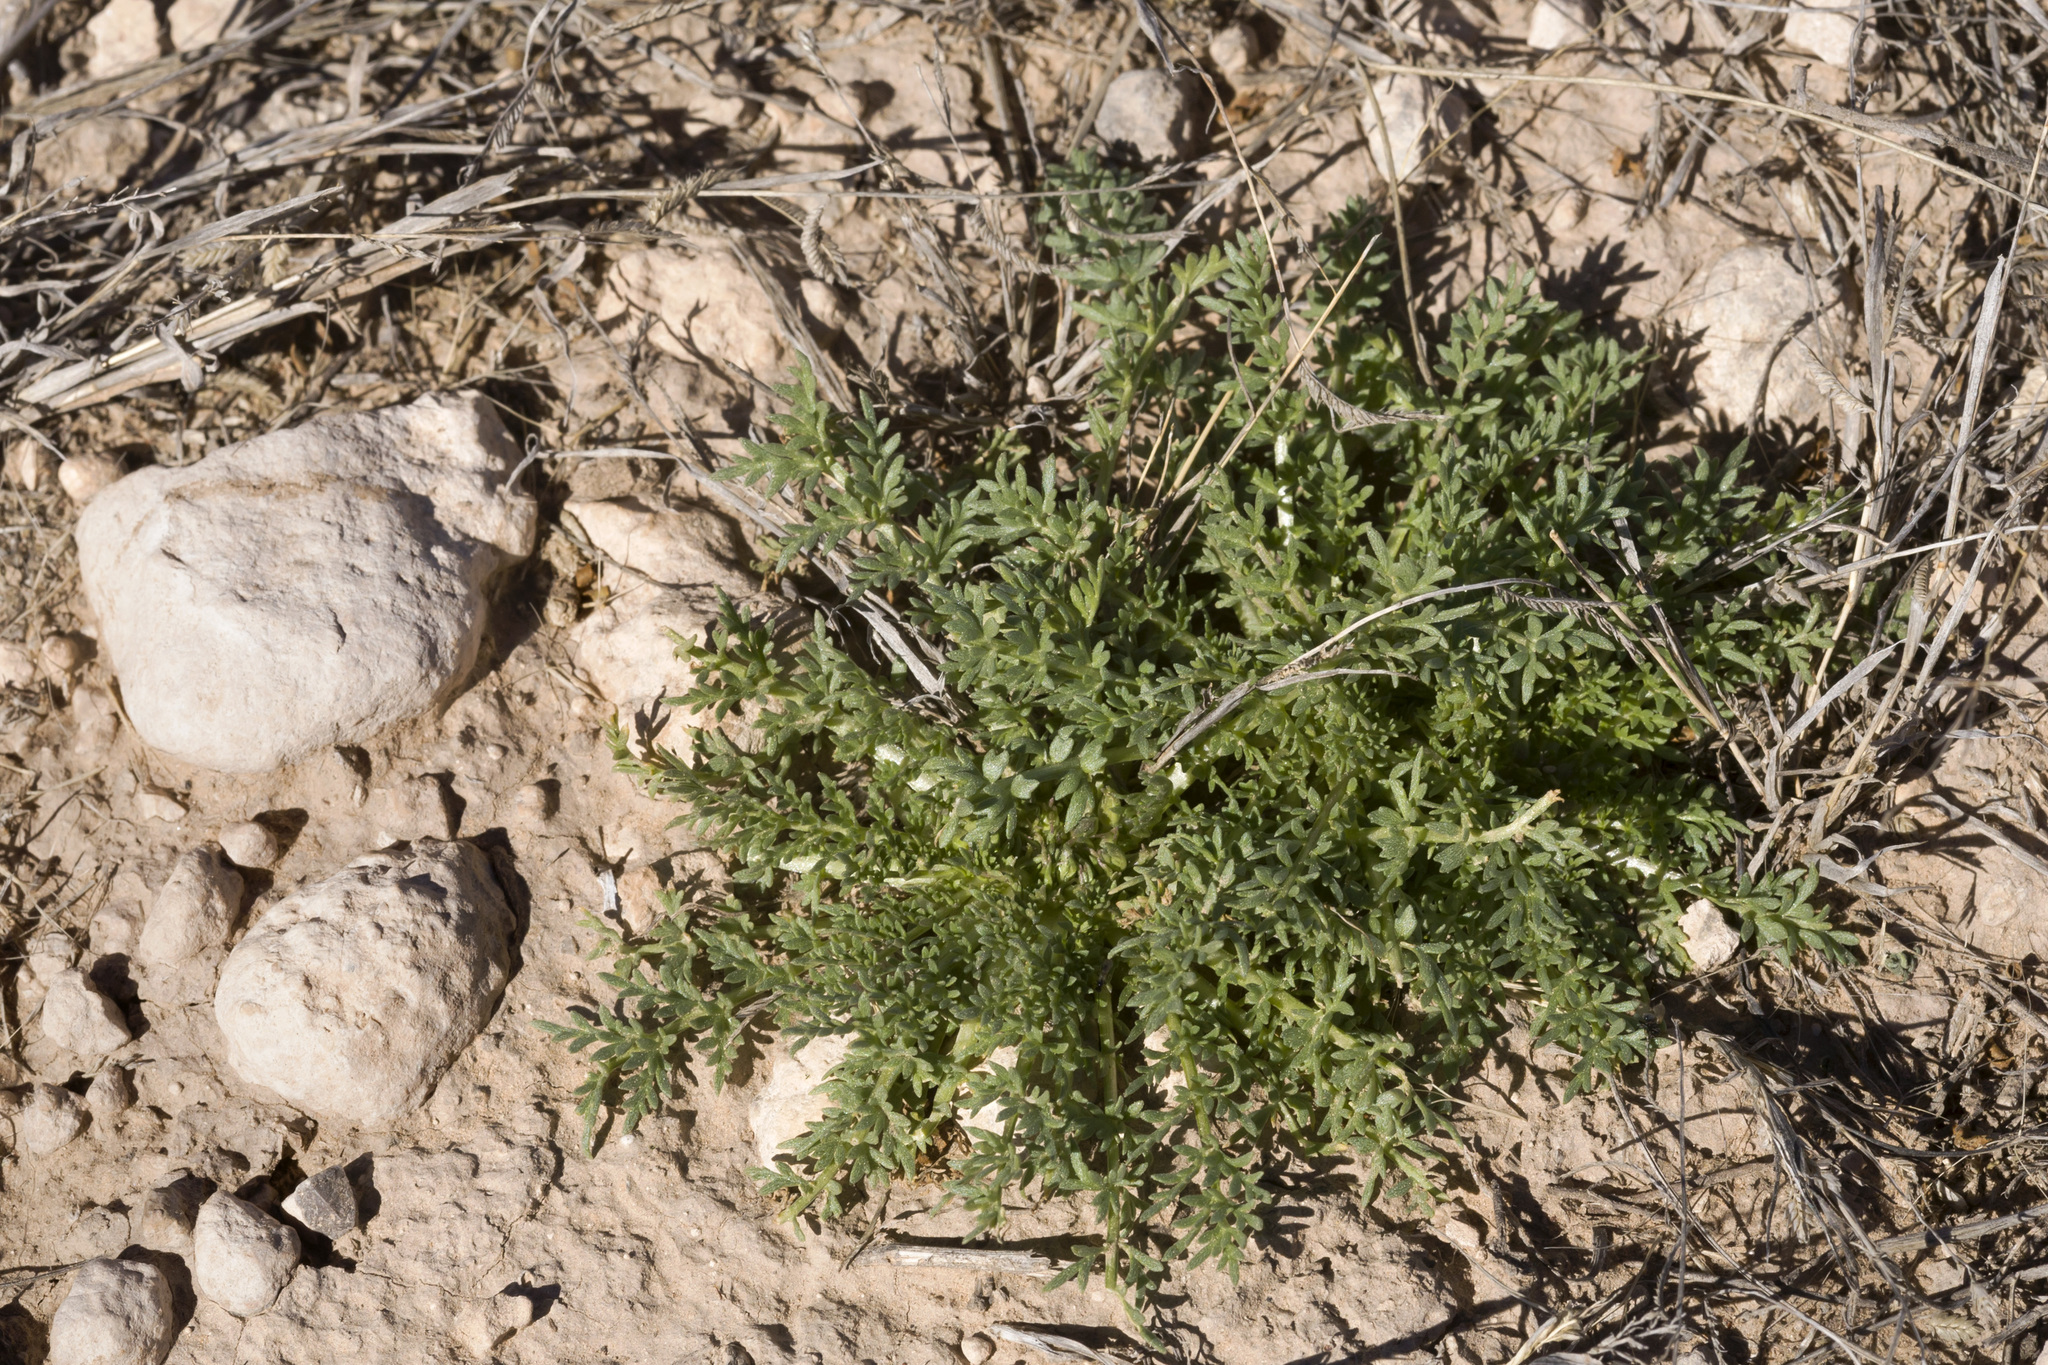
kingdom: Plantae
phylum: Tracheophyta
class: Magnoliopsida
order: Brassicales
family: Brassicaceae
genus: Selenia
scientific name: Selenia dissecta
